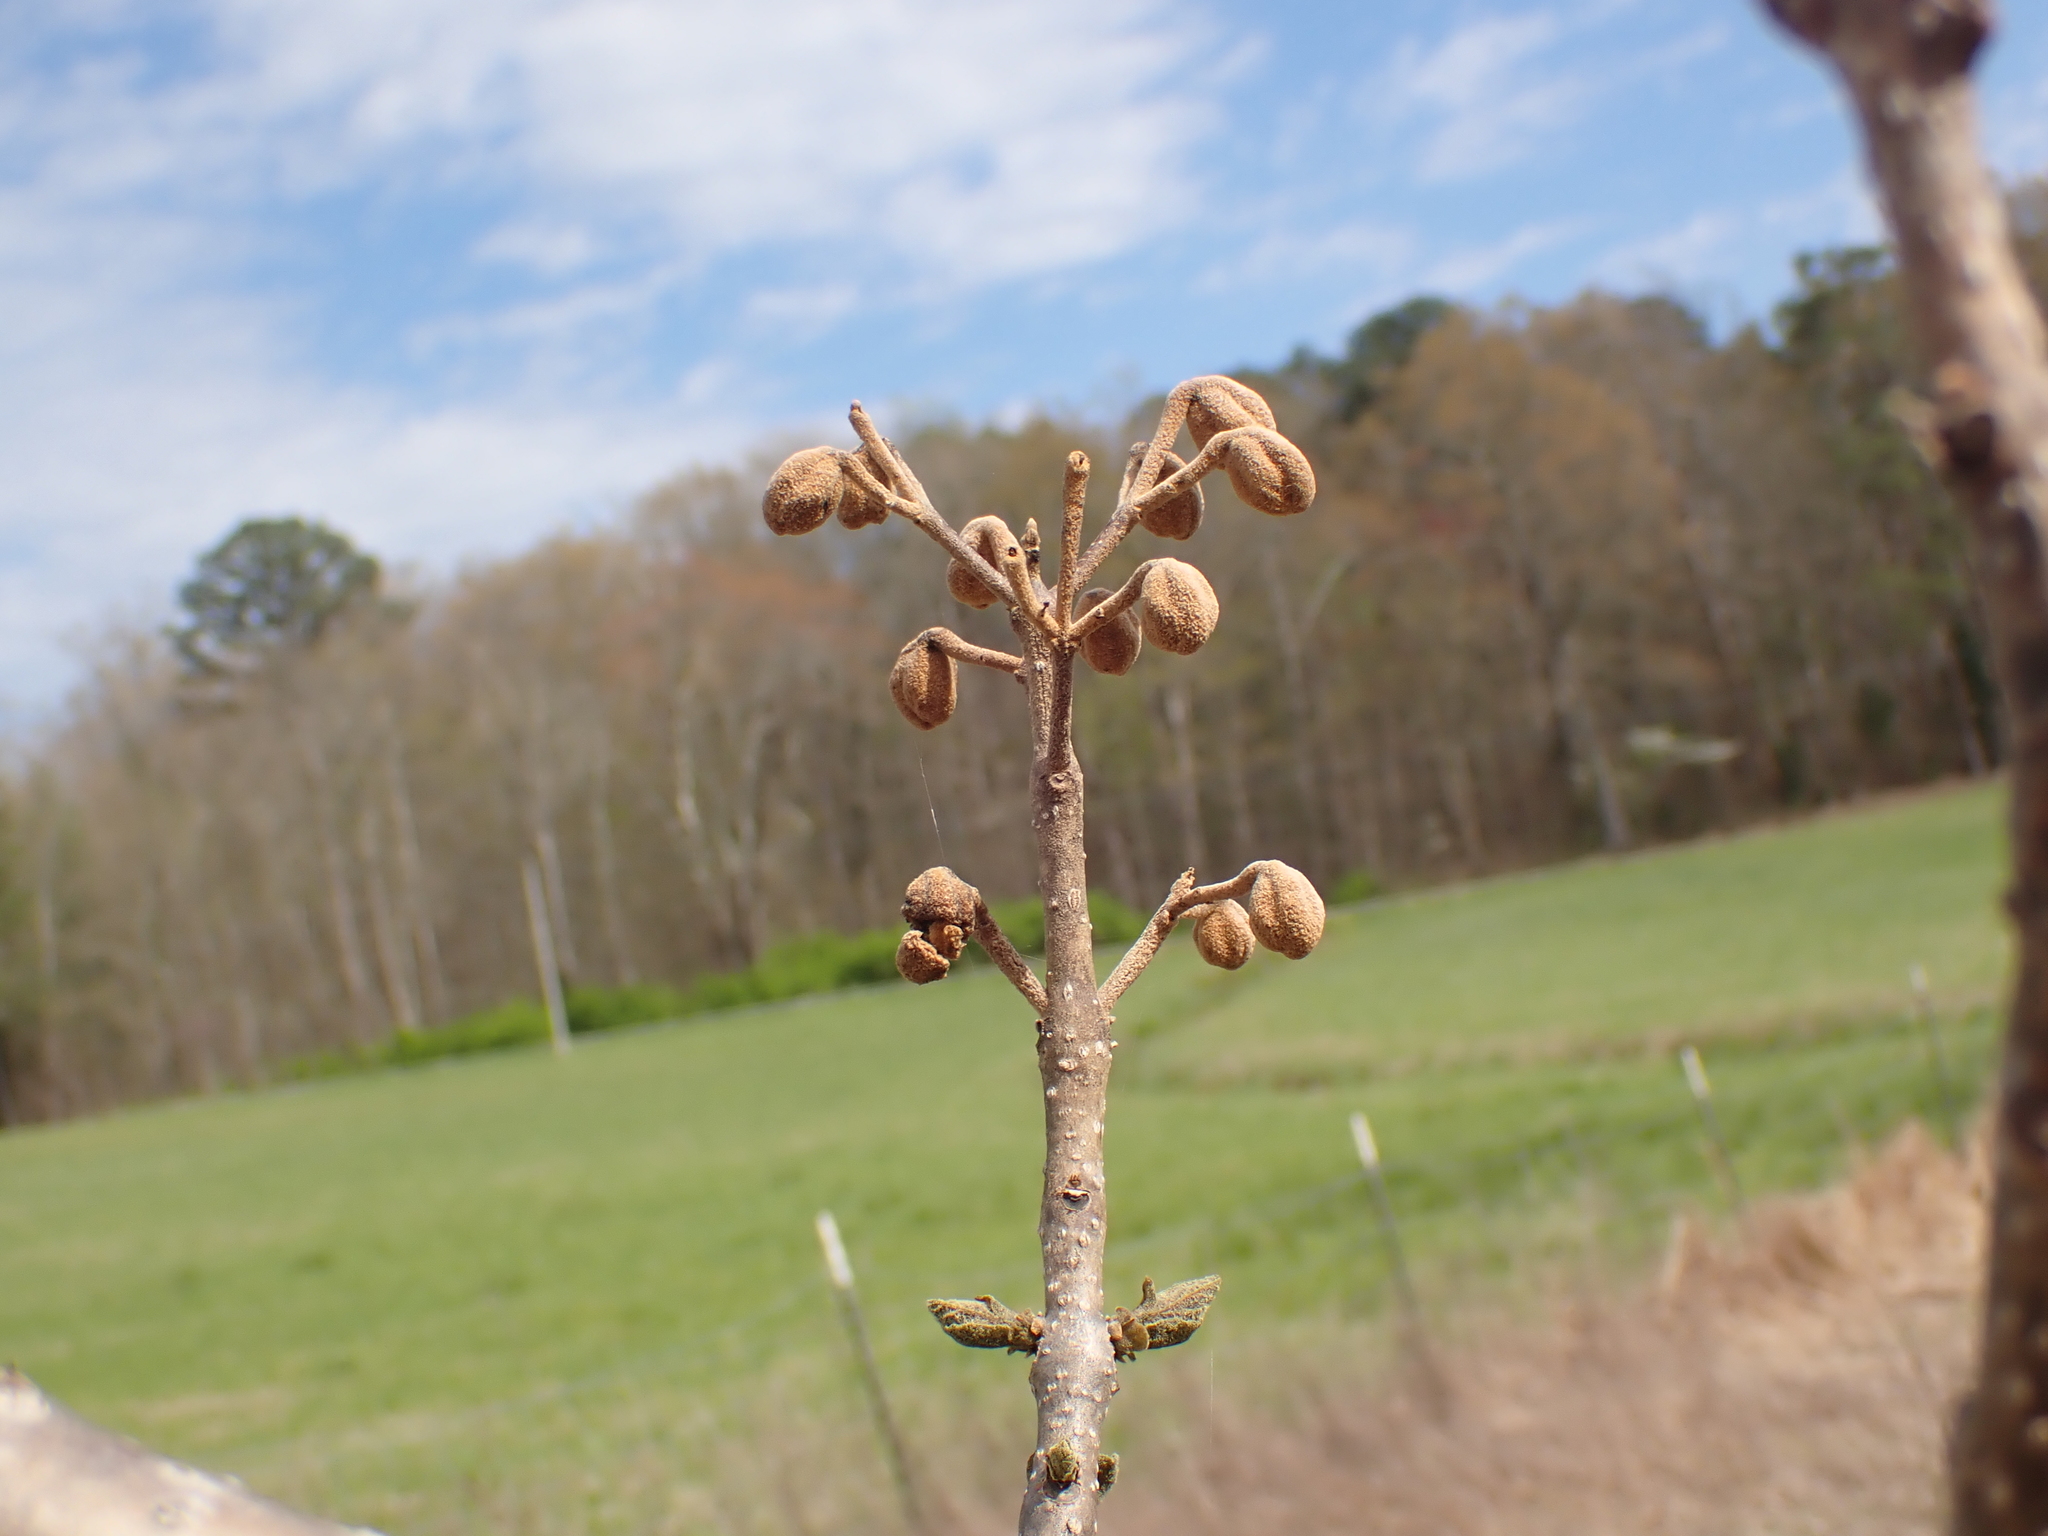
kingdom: Plantae
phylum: Tracheophyta
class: Magnoliopsida
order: Lamiales
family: Paulowniaceae
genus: Paulownia
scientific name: Paulownia tomentosa
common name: Foxglove-tree
